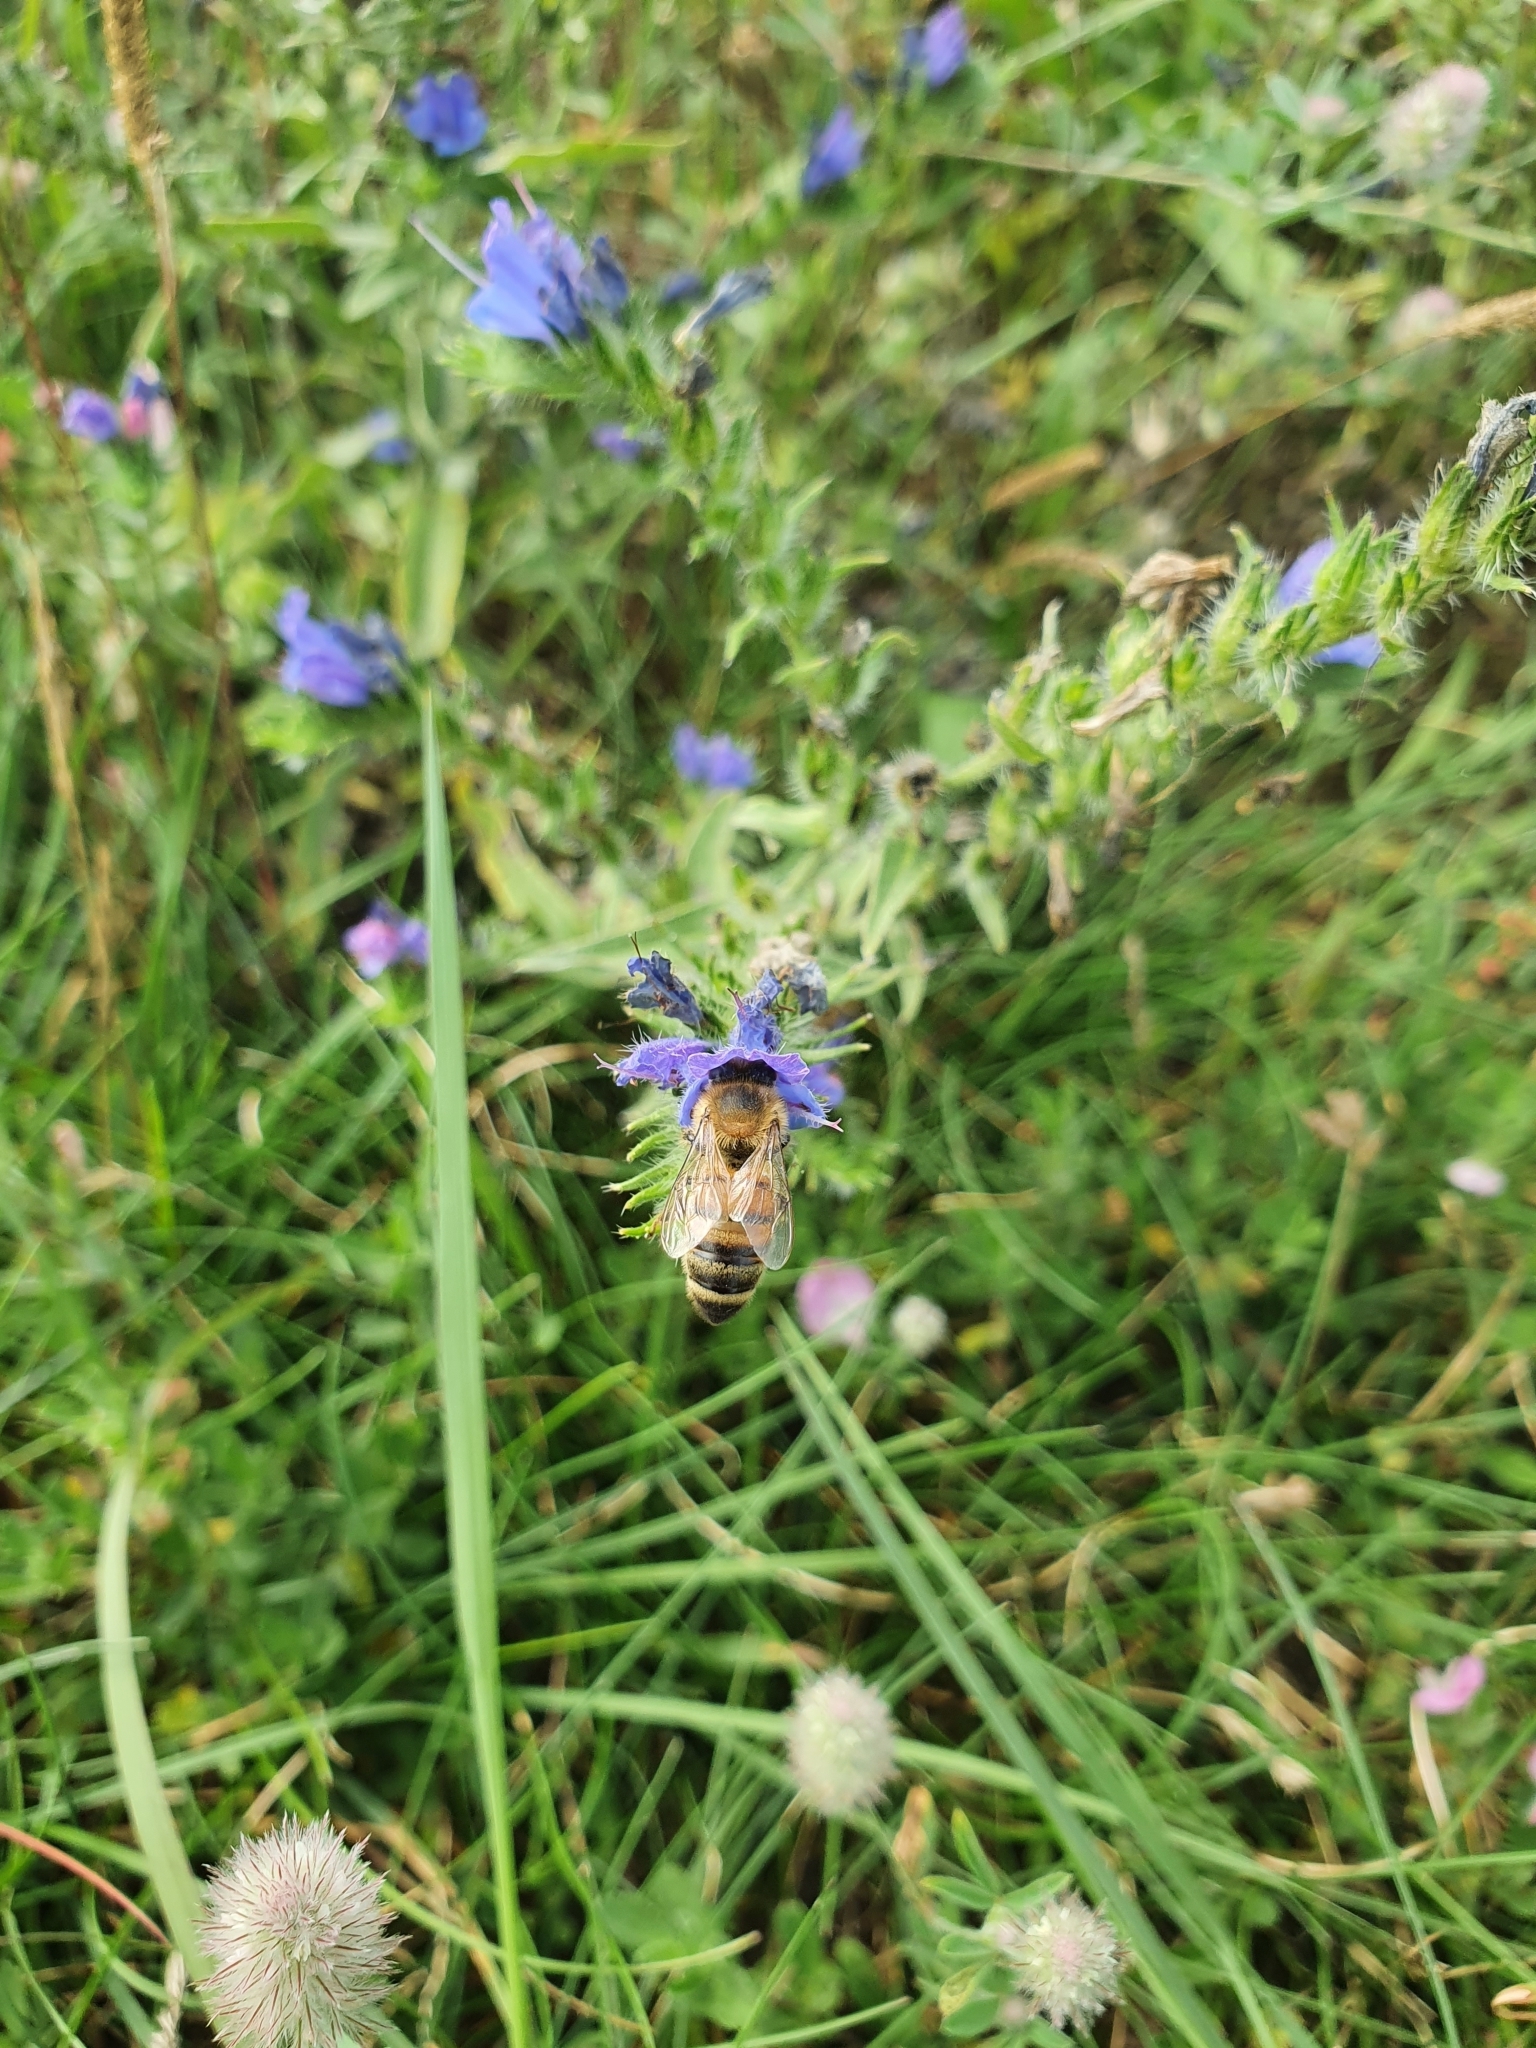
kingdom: Plantae
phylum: Tracheophyta
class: Magnoliopsida
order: Boraginales
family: Boraginaceae
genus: Echium
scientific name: Echium vulgare
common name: Common viper's bugloss
